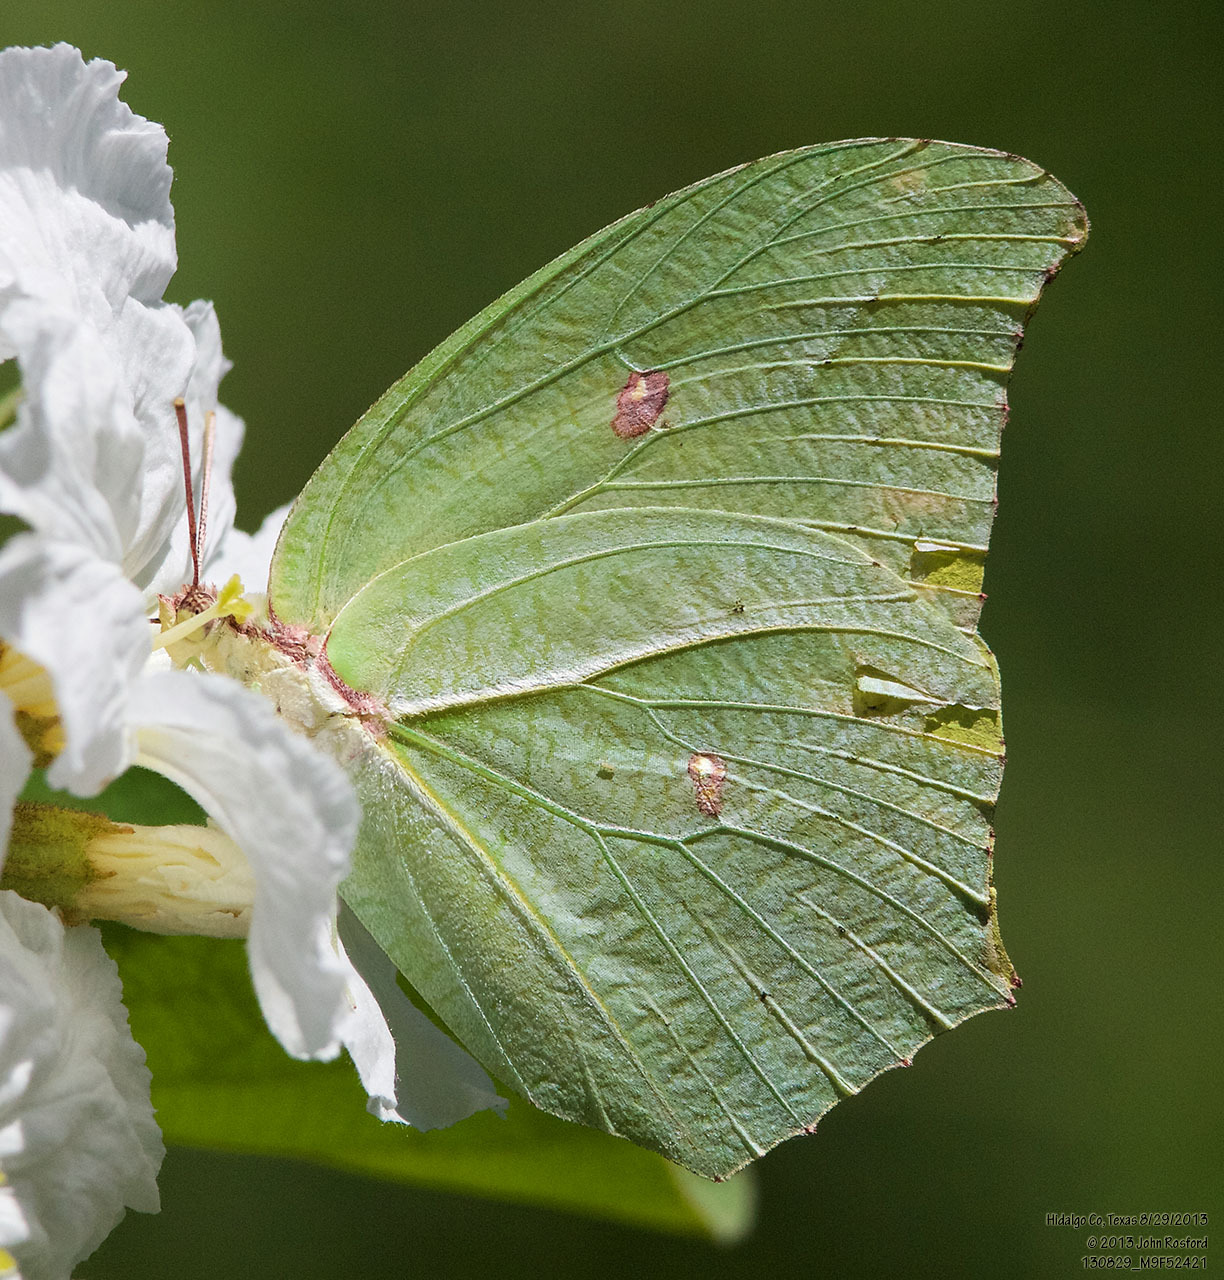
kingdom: Animalia
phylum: Arthropoda
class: Insecta
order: Lepidoptera
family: Pieridae
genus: Anteos
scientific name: Anteos maerula
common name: Angled sulphur
